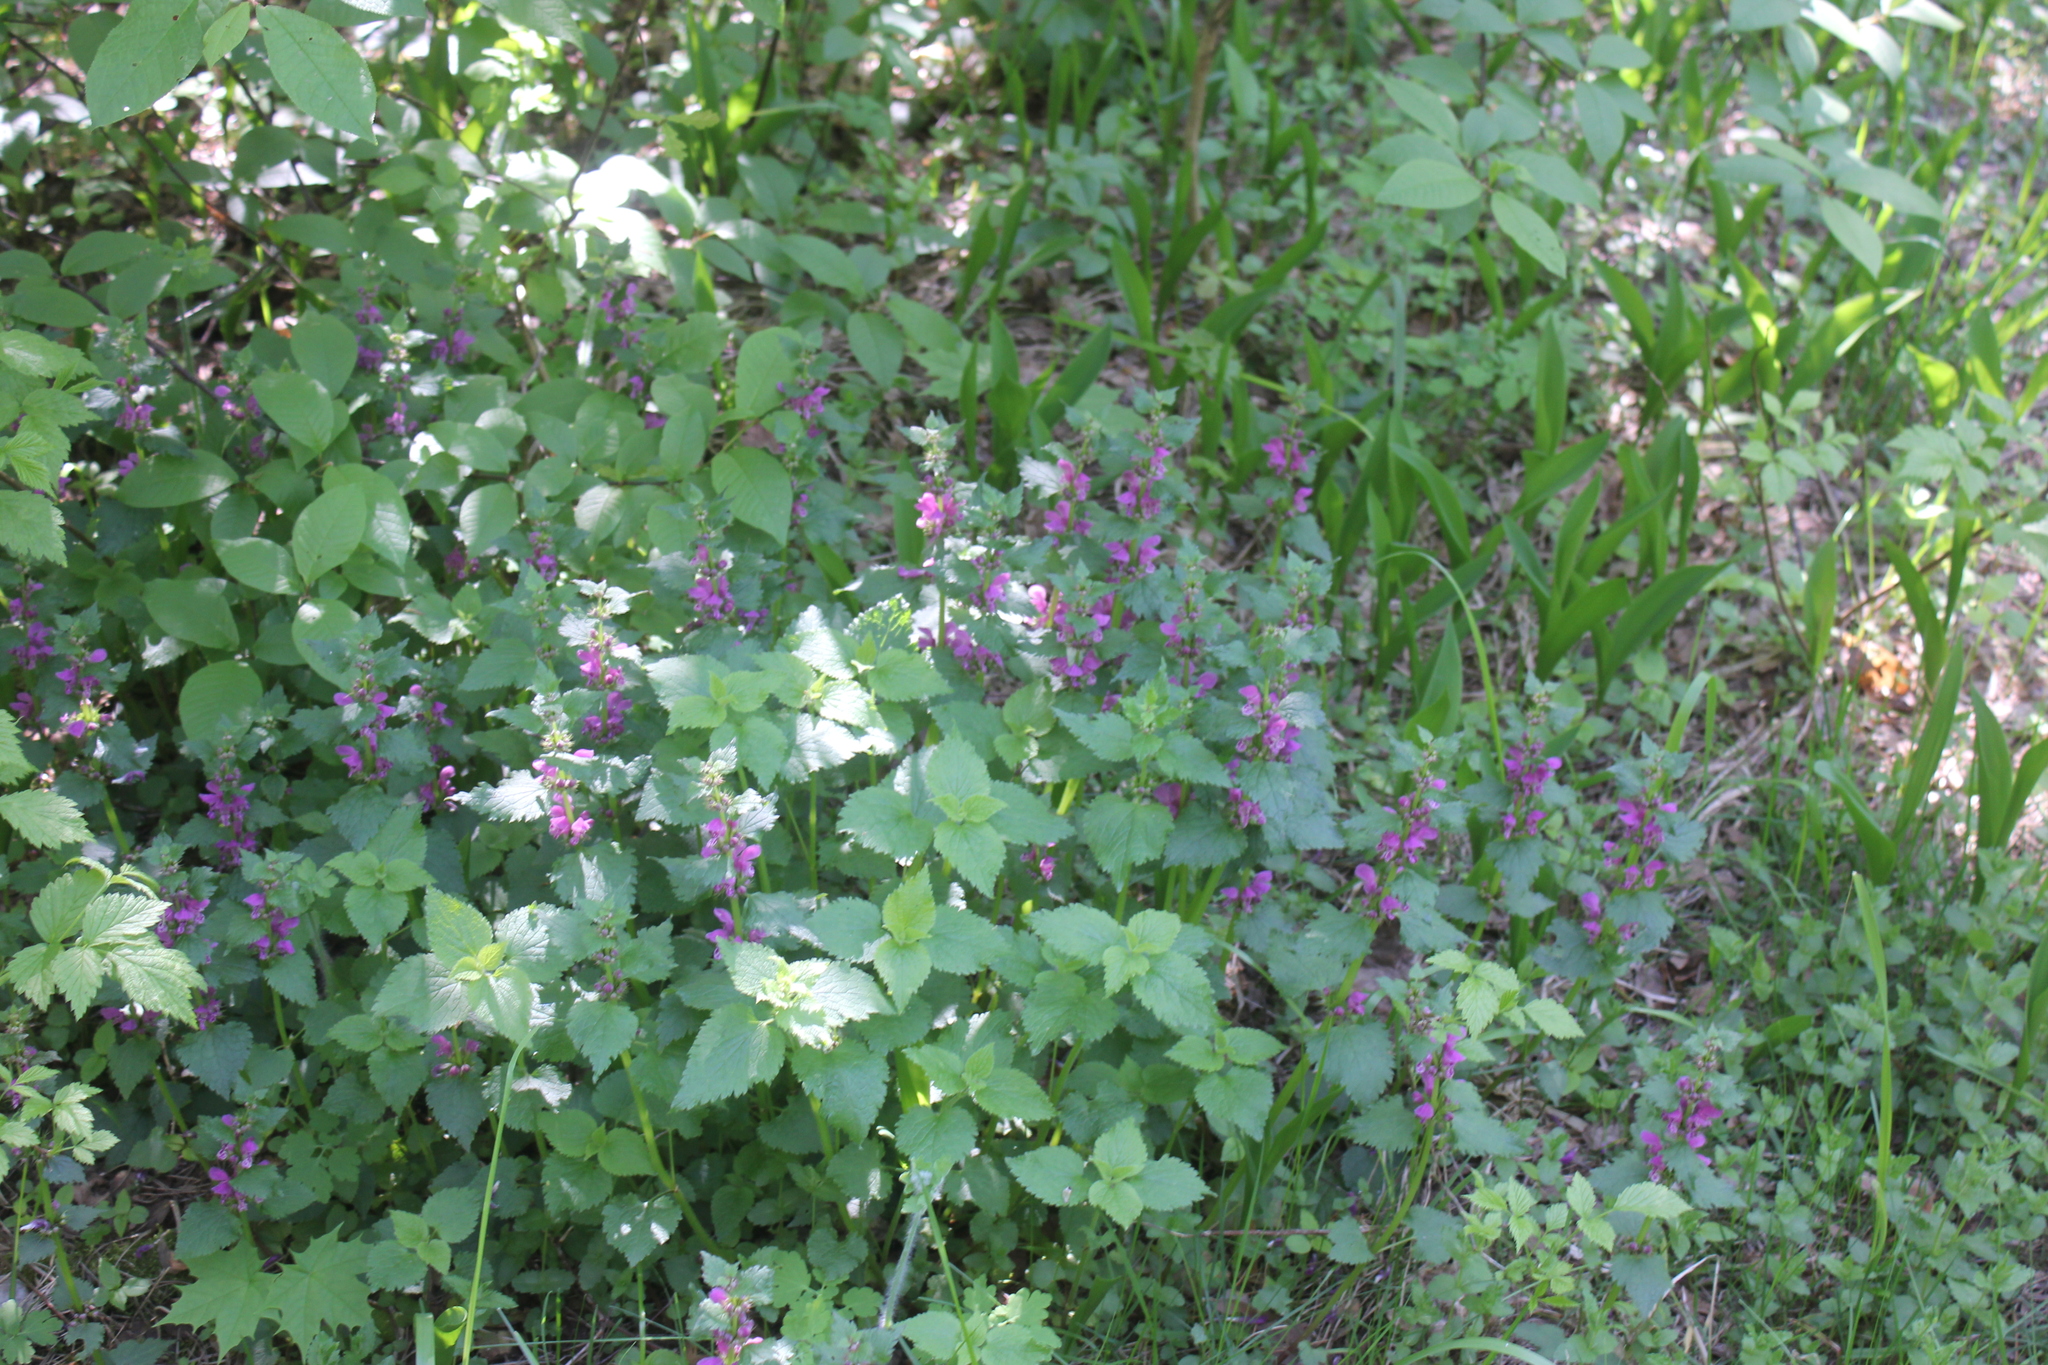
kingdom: Plantae
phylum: Tracheophyta
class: Magnoliopsida
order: Lamiales
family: Lamiaceae
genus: Lamium
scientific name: Lamium maculatum
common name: Spotted dead-nettle
